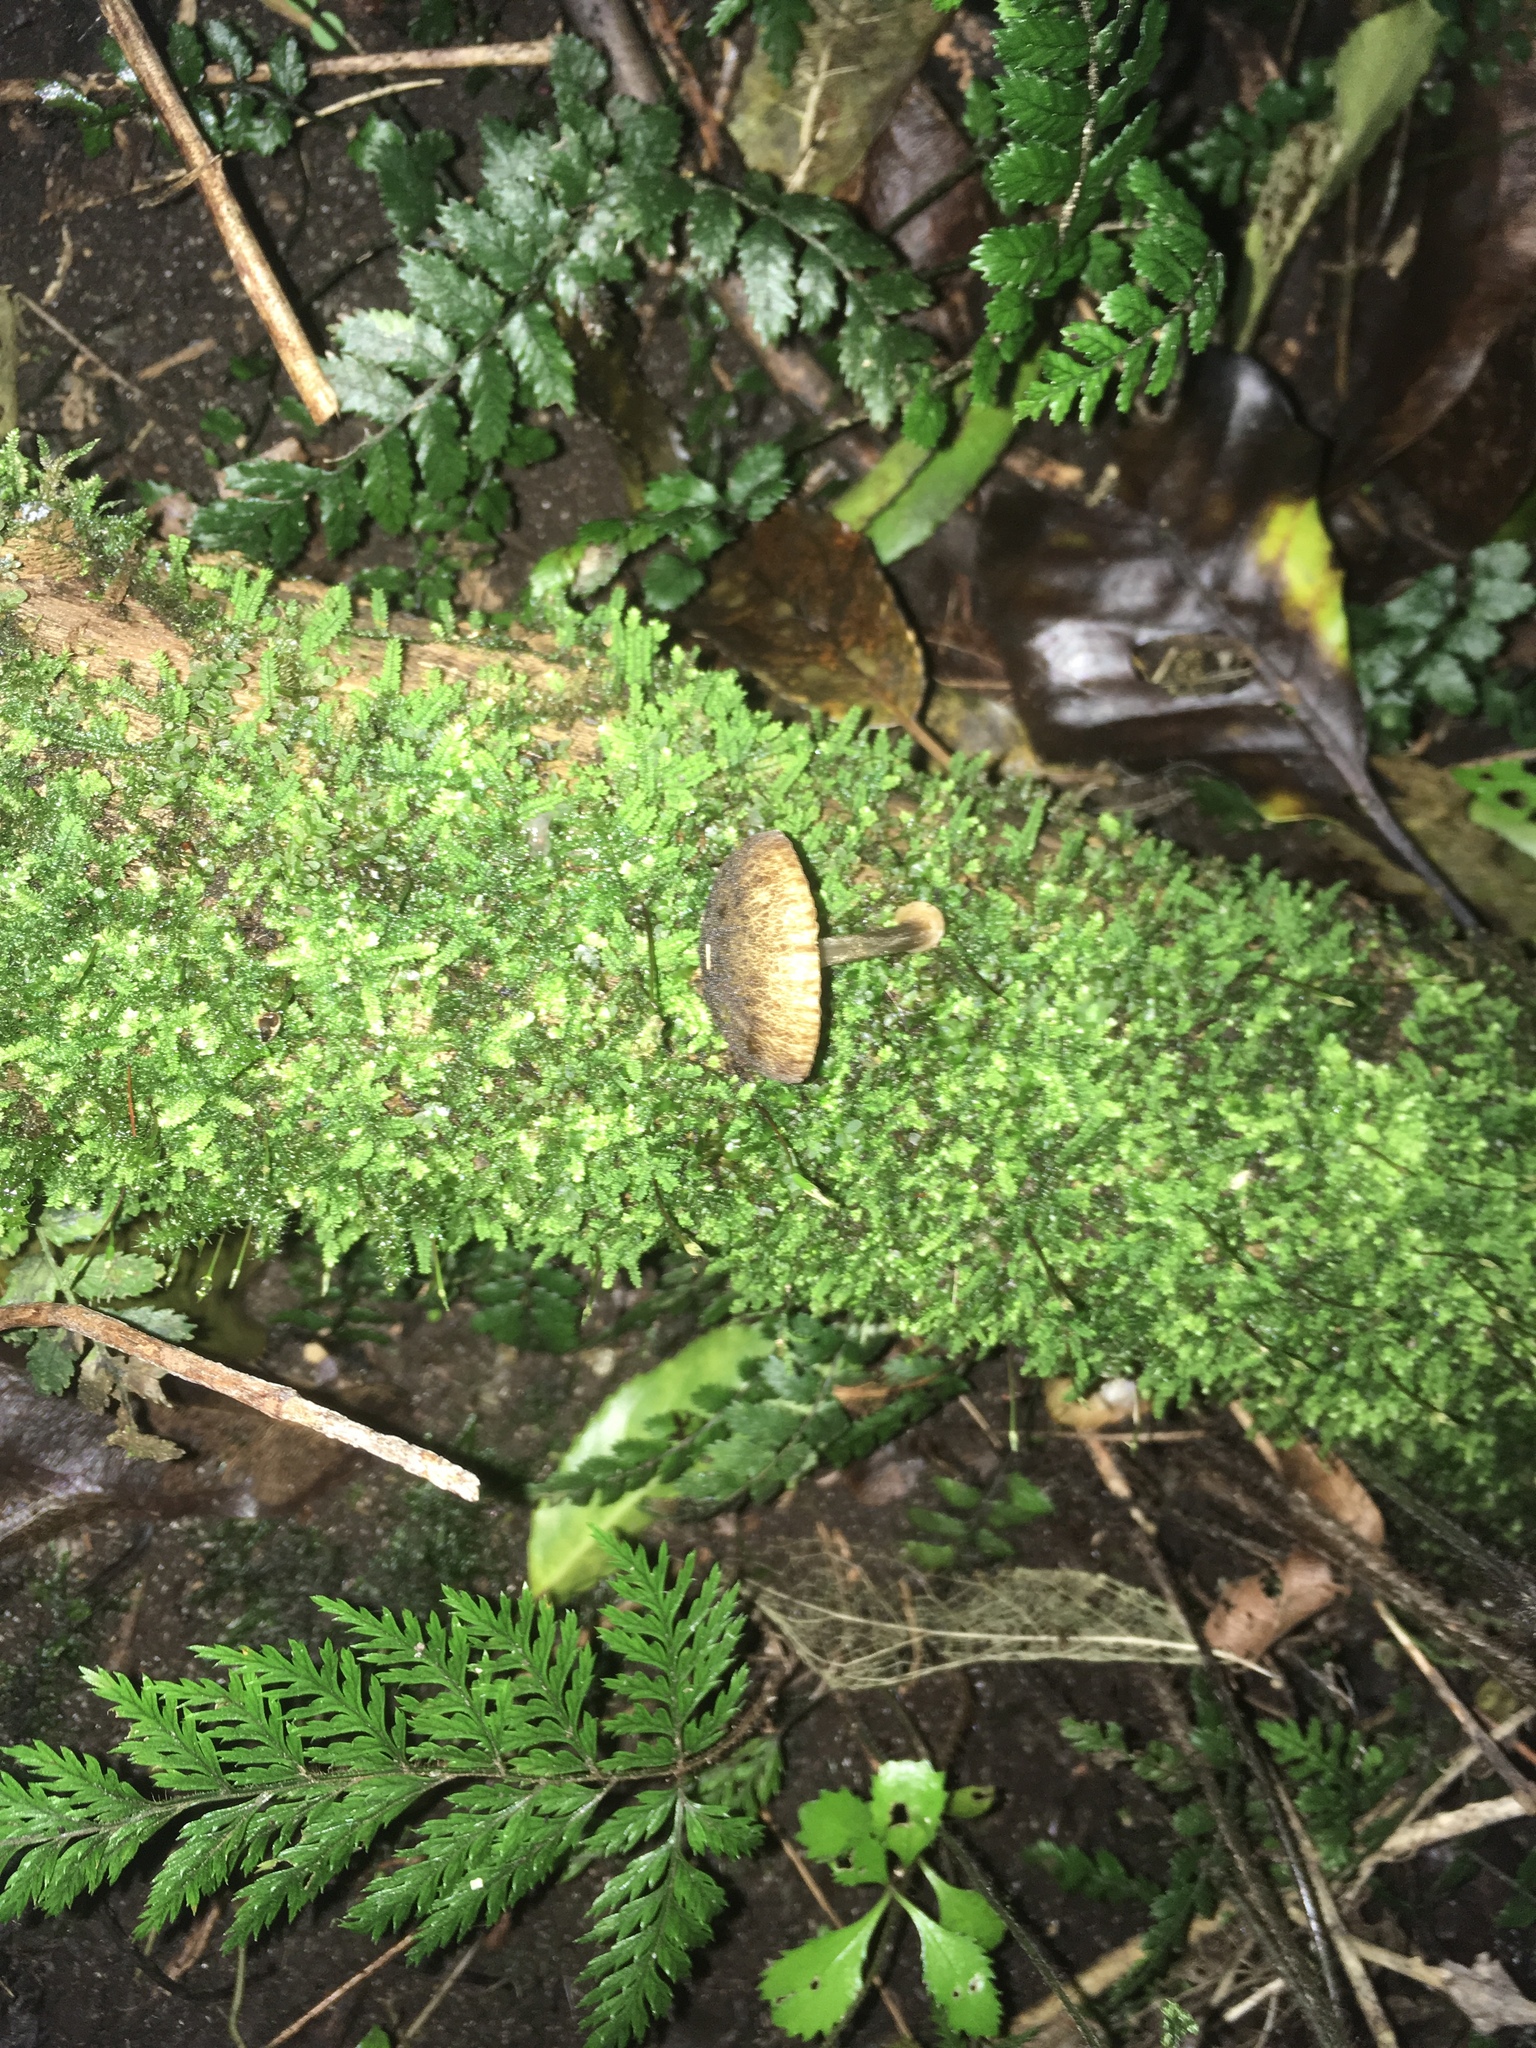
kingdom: Fungi
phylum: Basidiomycota
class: Agaricomycetes
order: Agaricales
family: Pluteaceae
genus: Pluteus
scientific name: Pluteus readiarum
